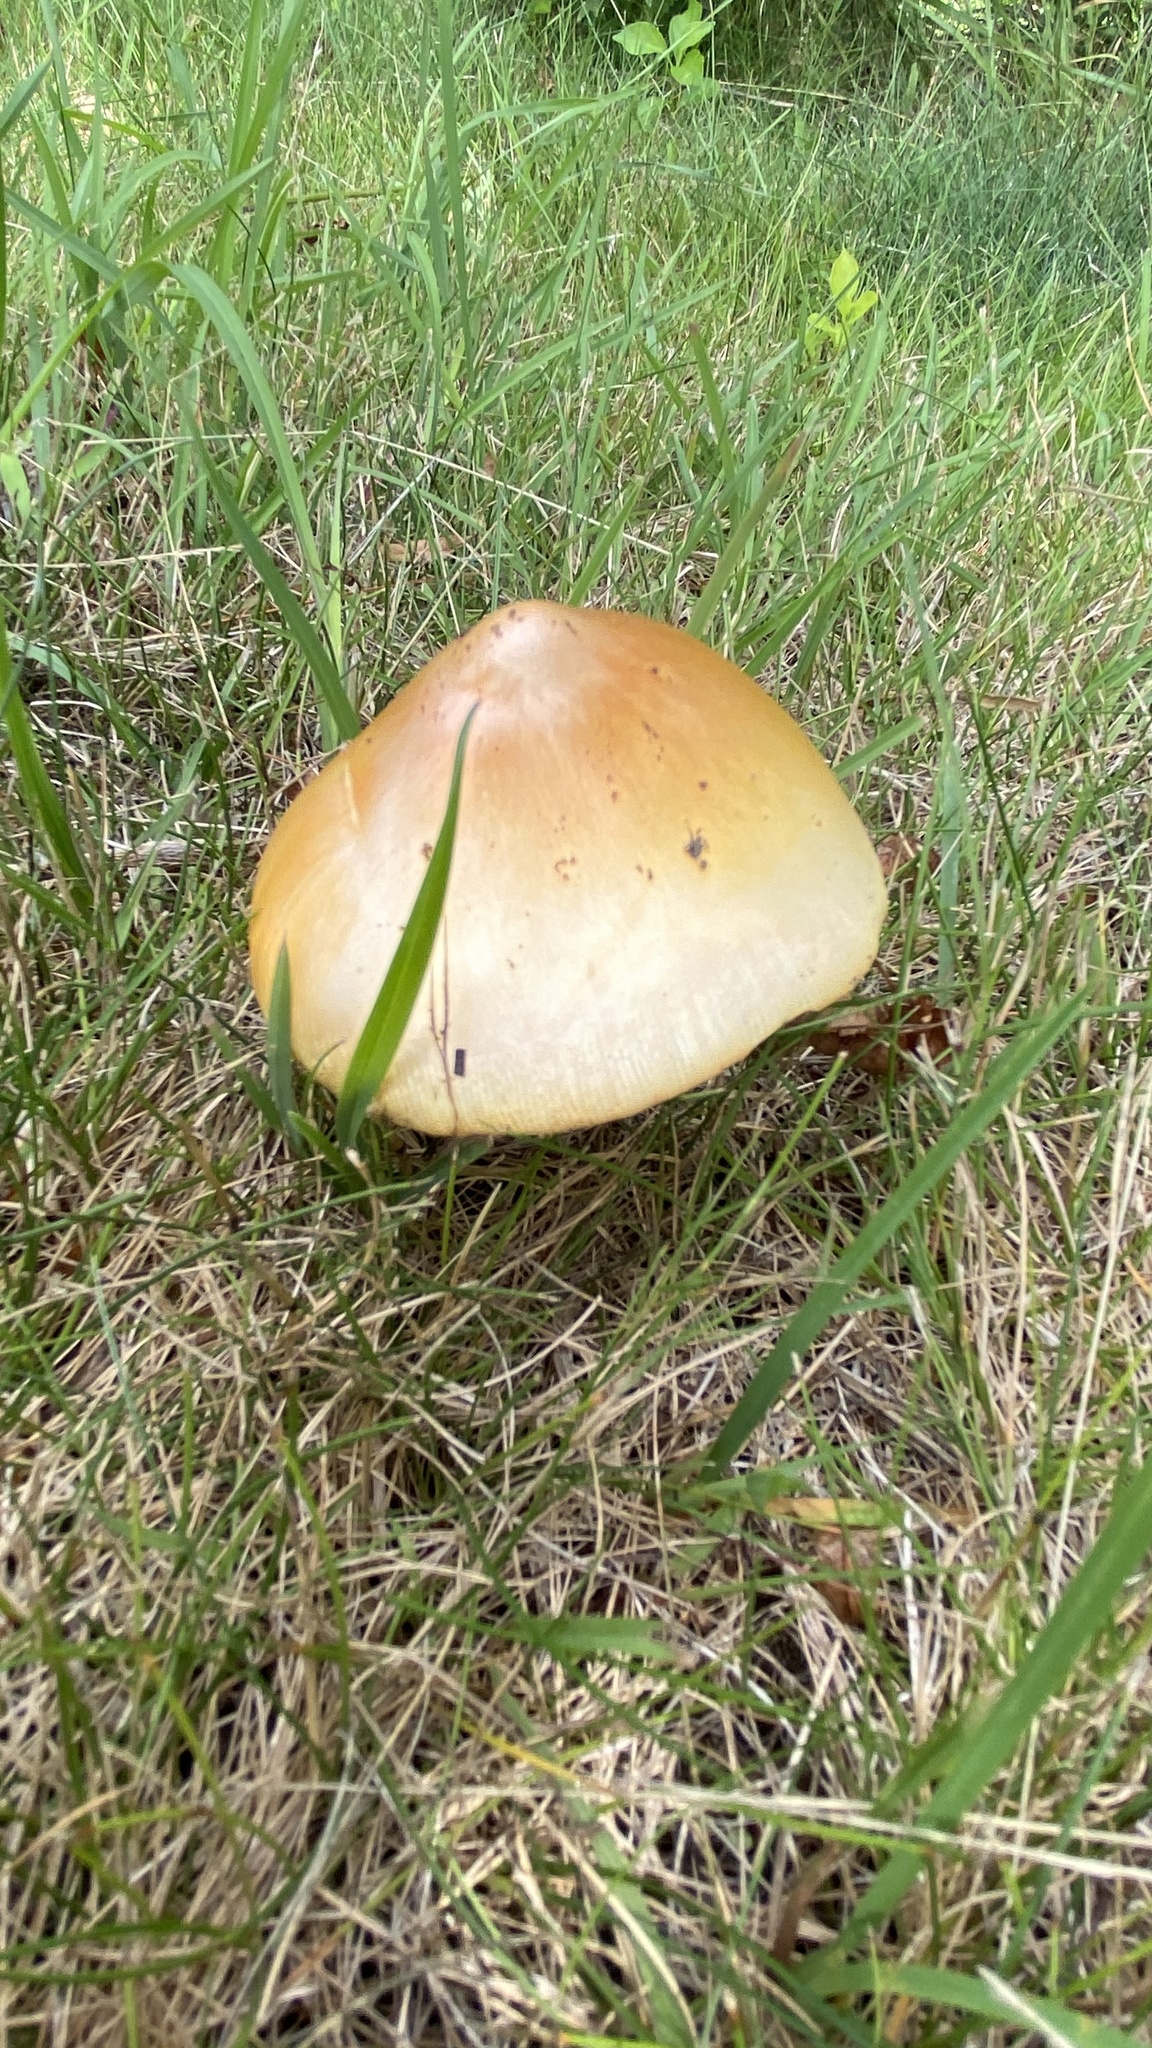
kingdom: Fungi
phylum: Basidiomycota
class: Agaricomycetes
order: Agaricales
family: Amanitaceae
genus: Amanita
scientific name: Amanita jacksonii
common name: Jackson's slender caesar
